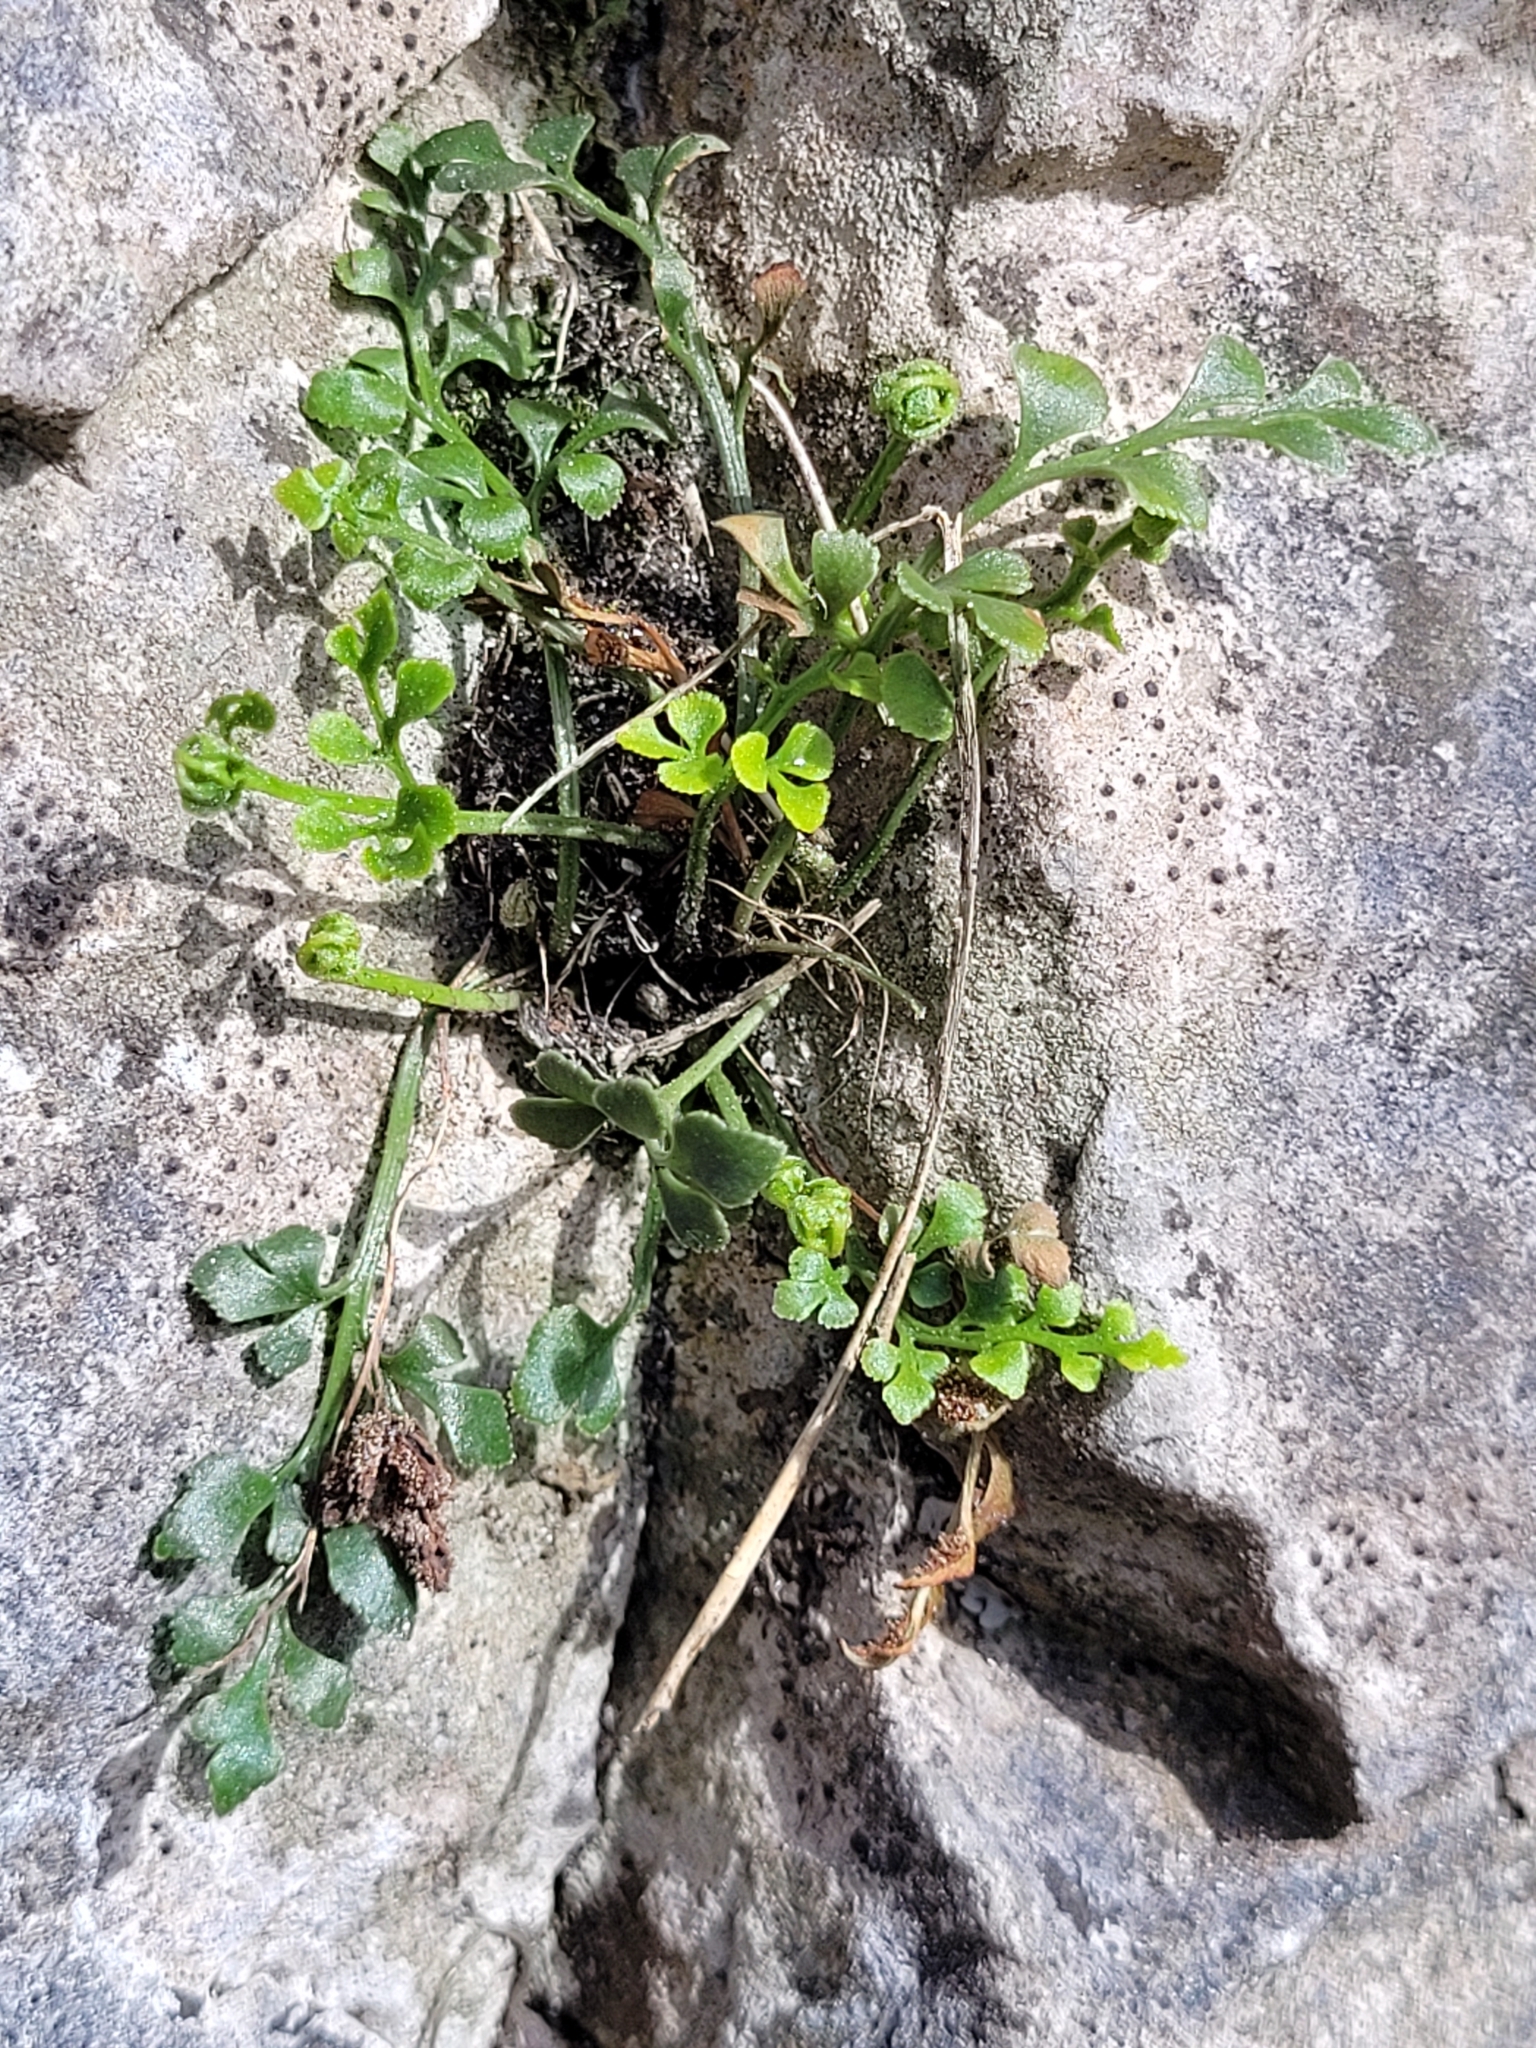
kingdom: Plantae
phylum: Tracheophyta
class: Polypodiopsida
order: Polypodiales
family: Aspleniaceae
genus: Asplenium
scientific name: Asplenium ruta-muraria
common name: Wall-rue
